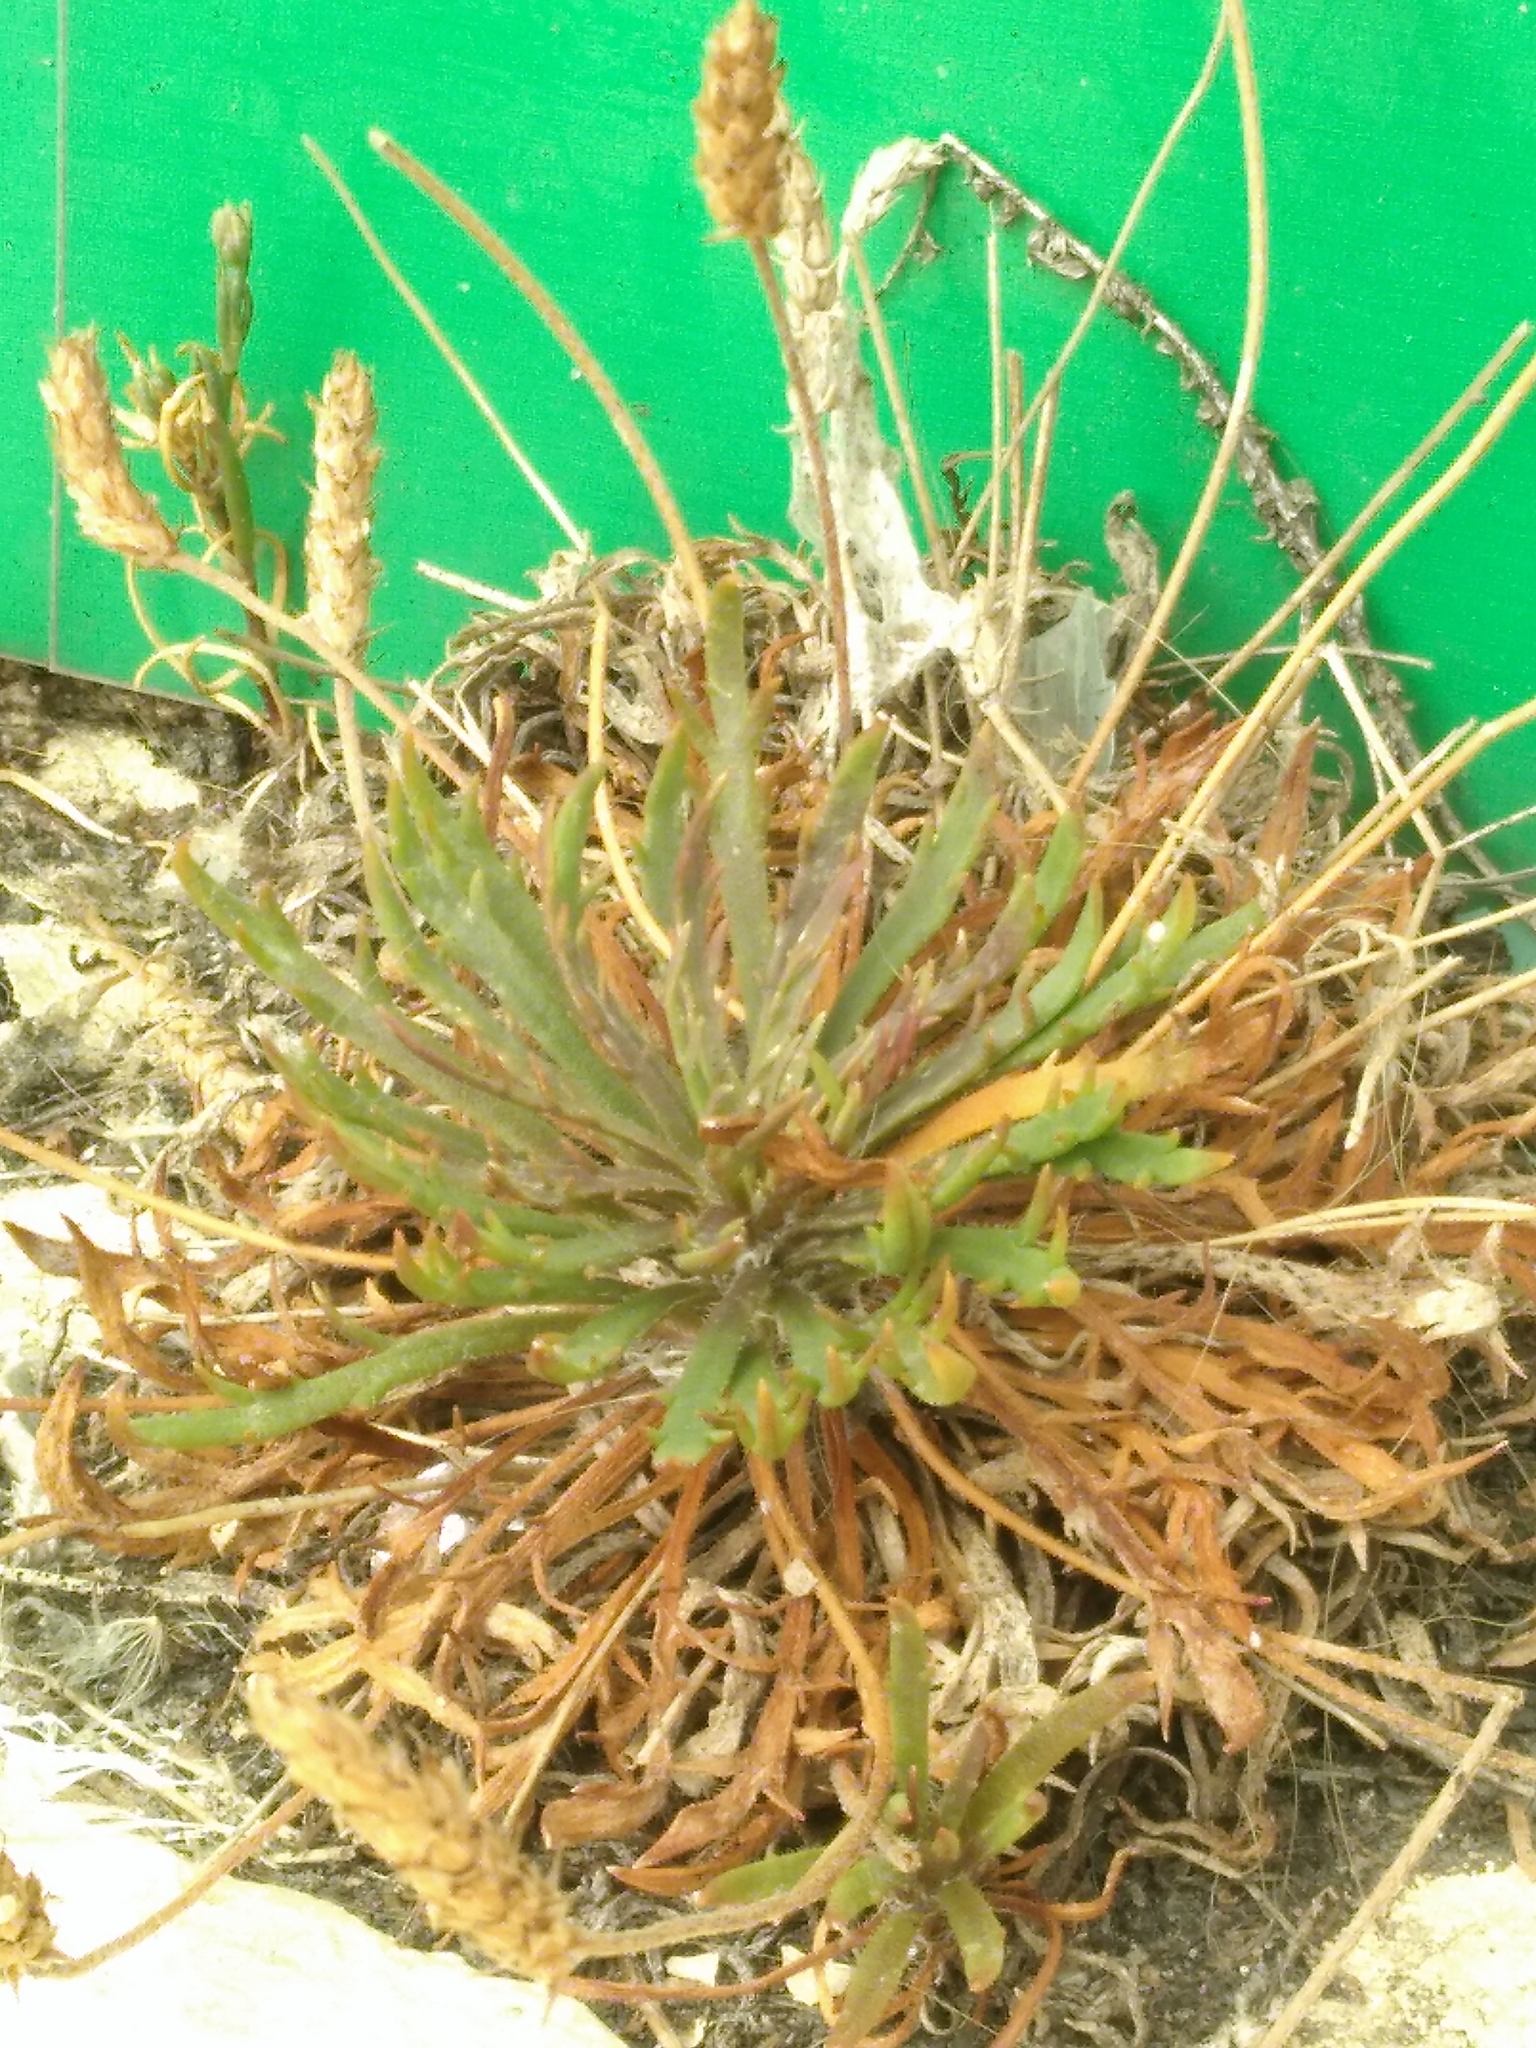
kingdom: Plantae
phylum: Tracheophyta
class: Magnoliopsida
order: Lamiales
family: Plantaginaceae
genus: Plantago
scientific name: Plantago coronopus
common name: Buck's-horn plantain
